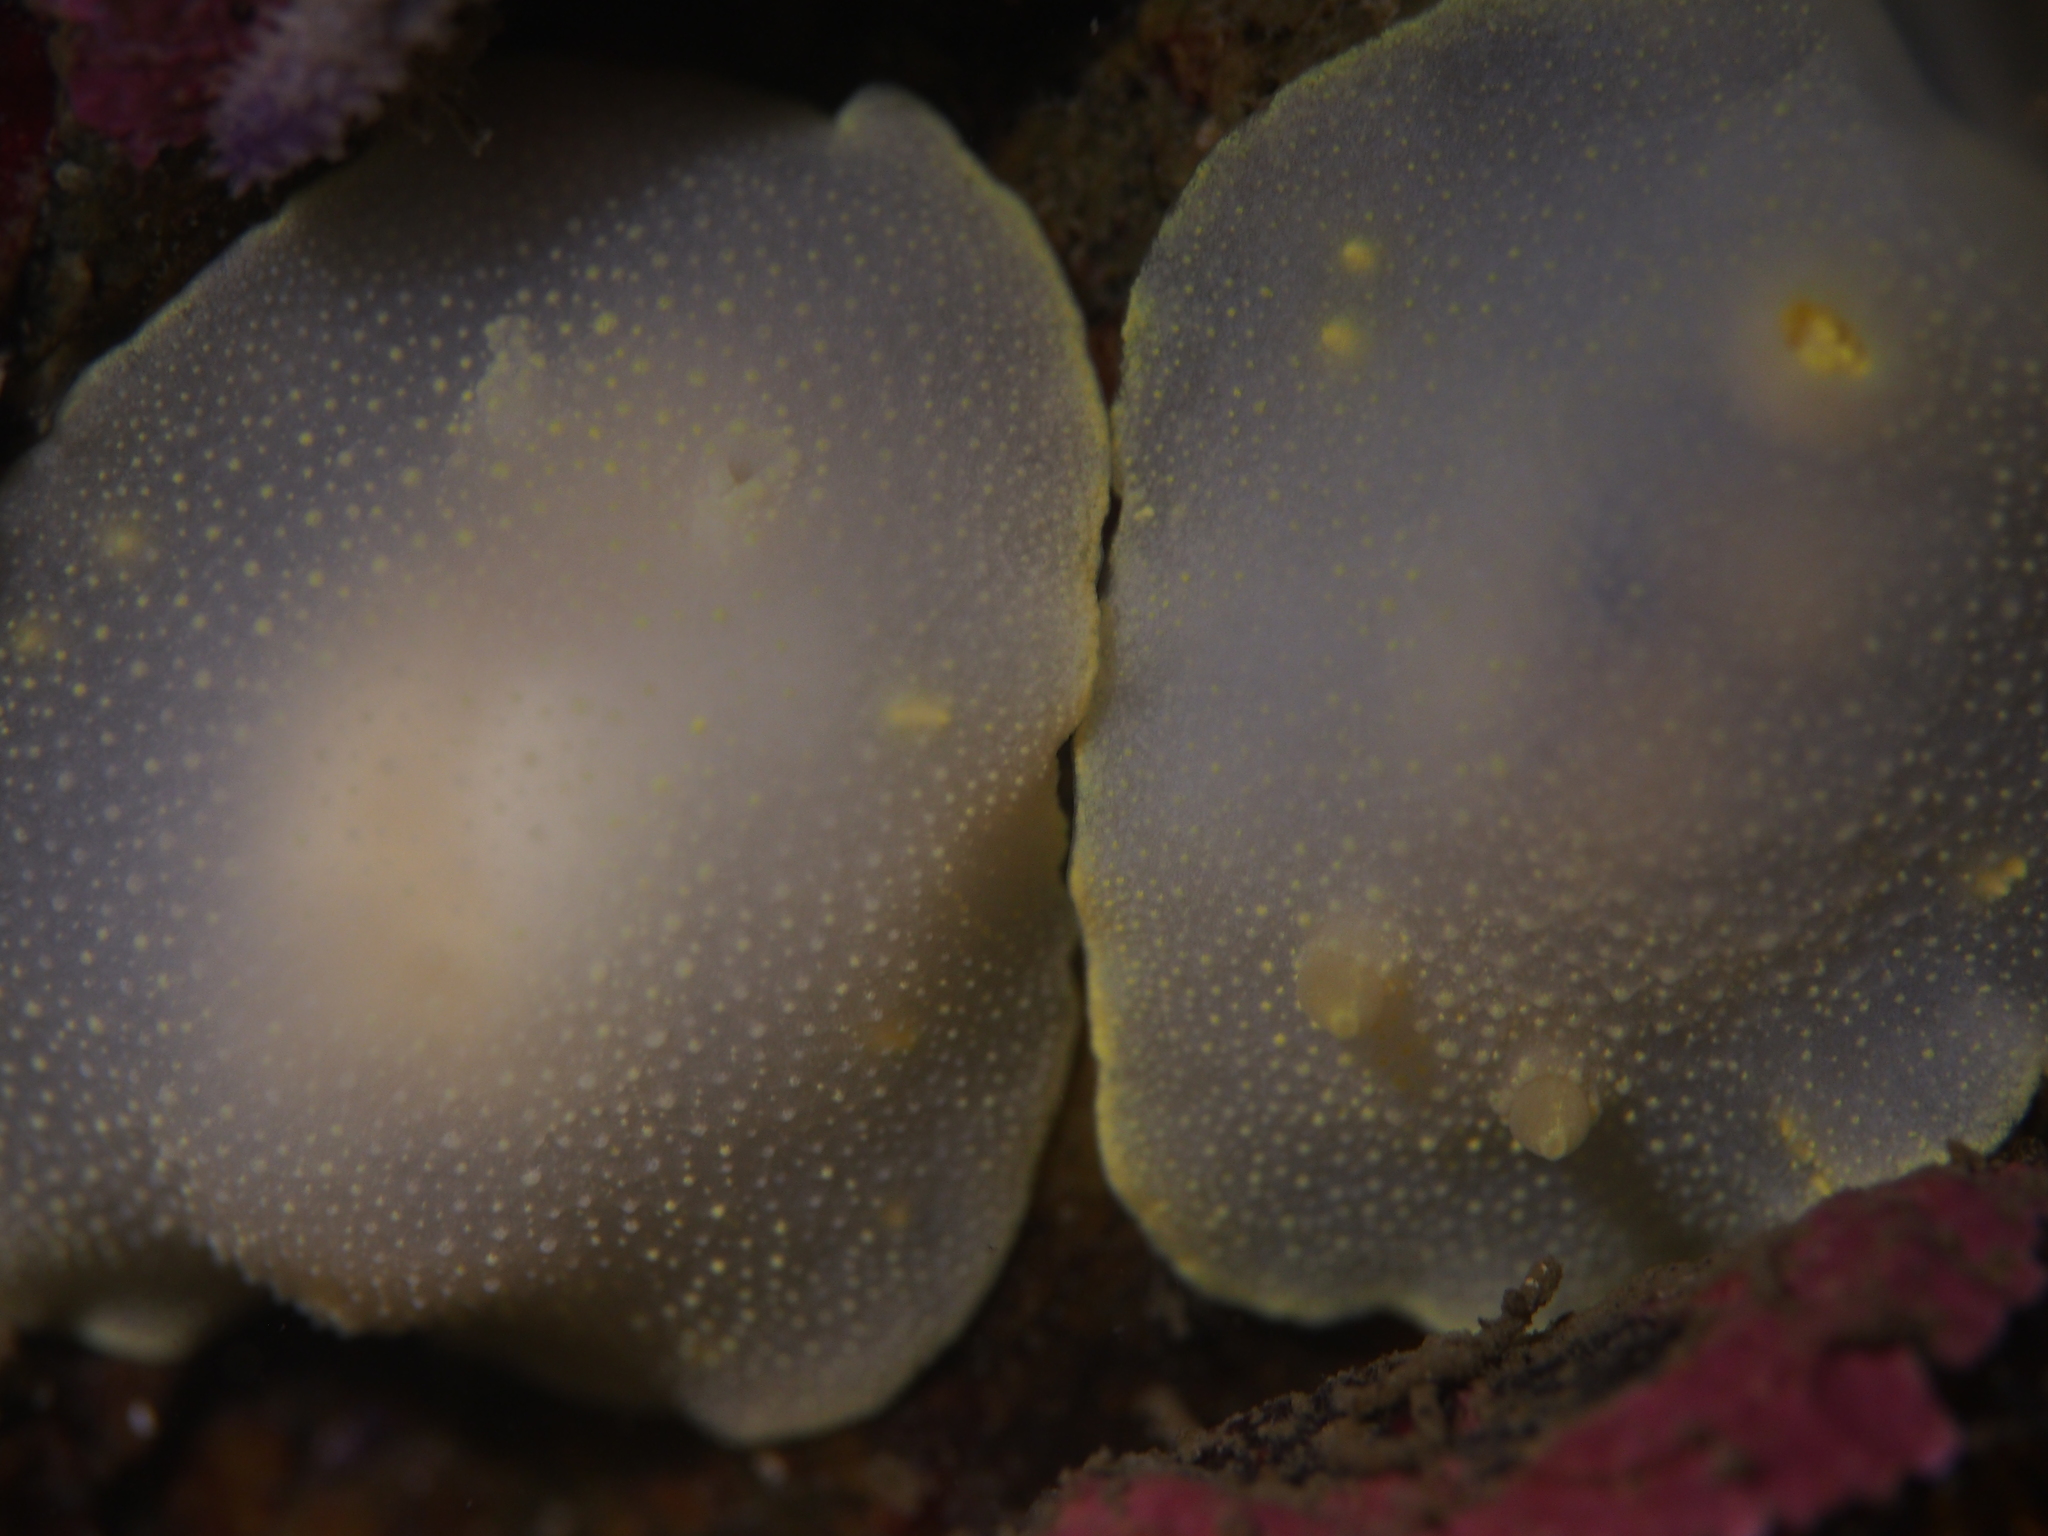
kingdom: Animalia
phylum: Mollusca
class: Gastropoda
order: Nudibranchia
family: Cadlinidae
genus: Cadlina
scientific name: Cadlina laevis
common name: White atlantic cadlina
